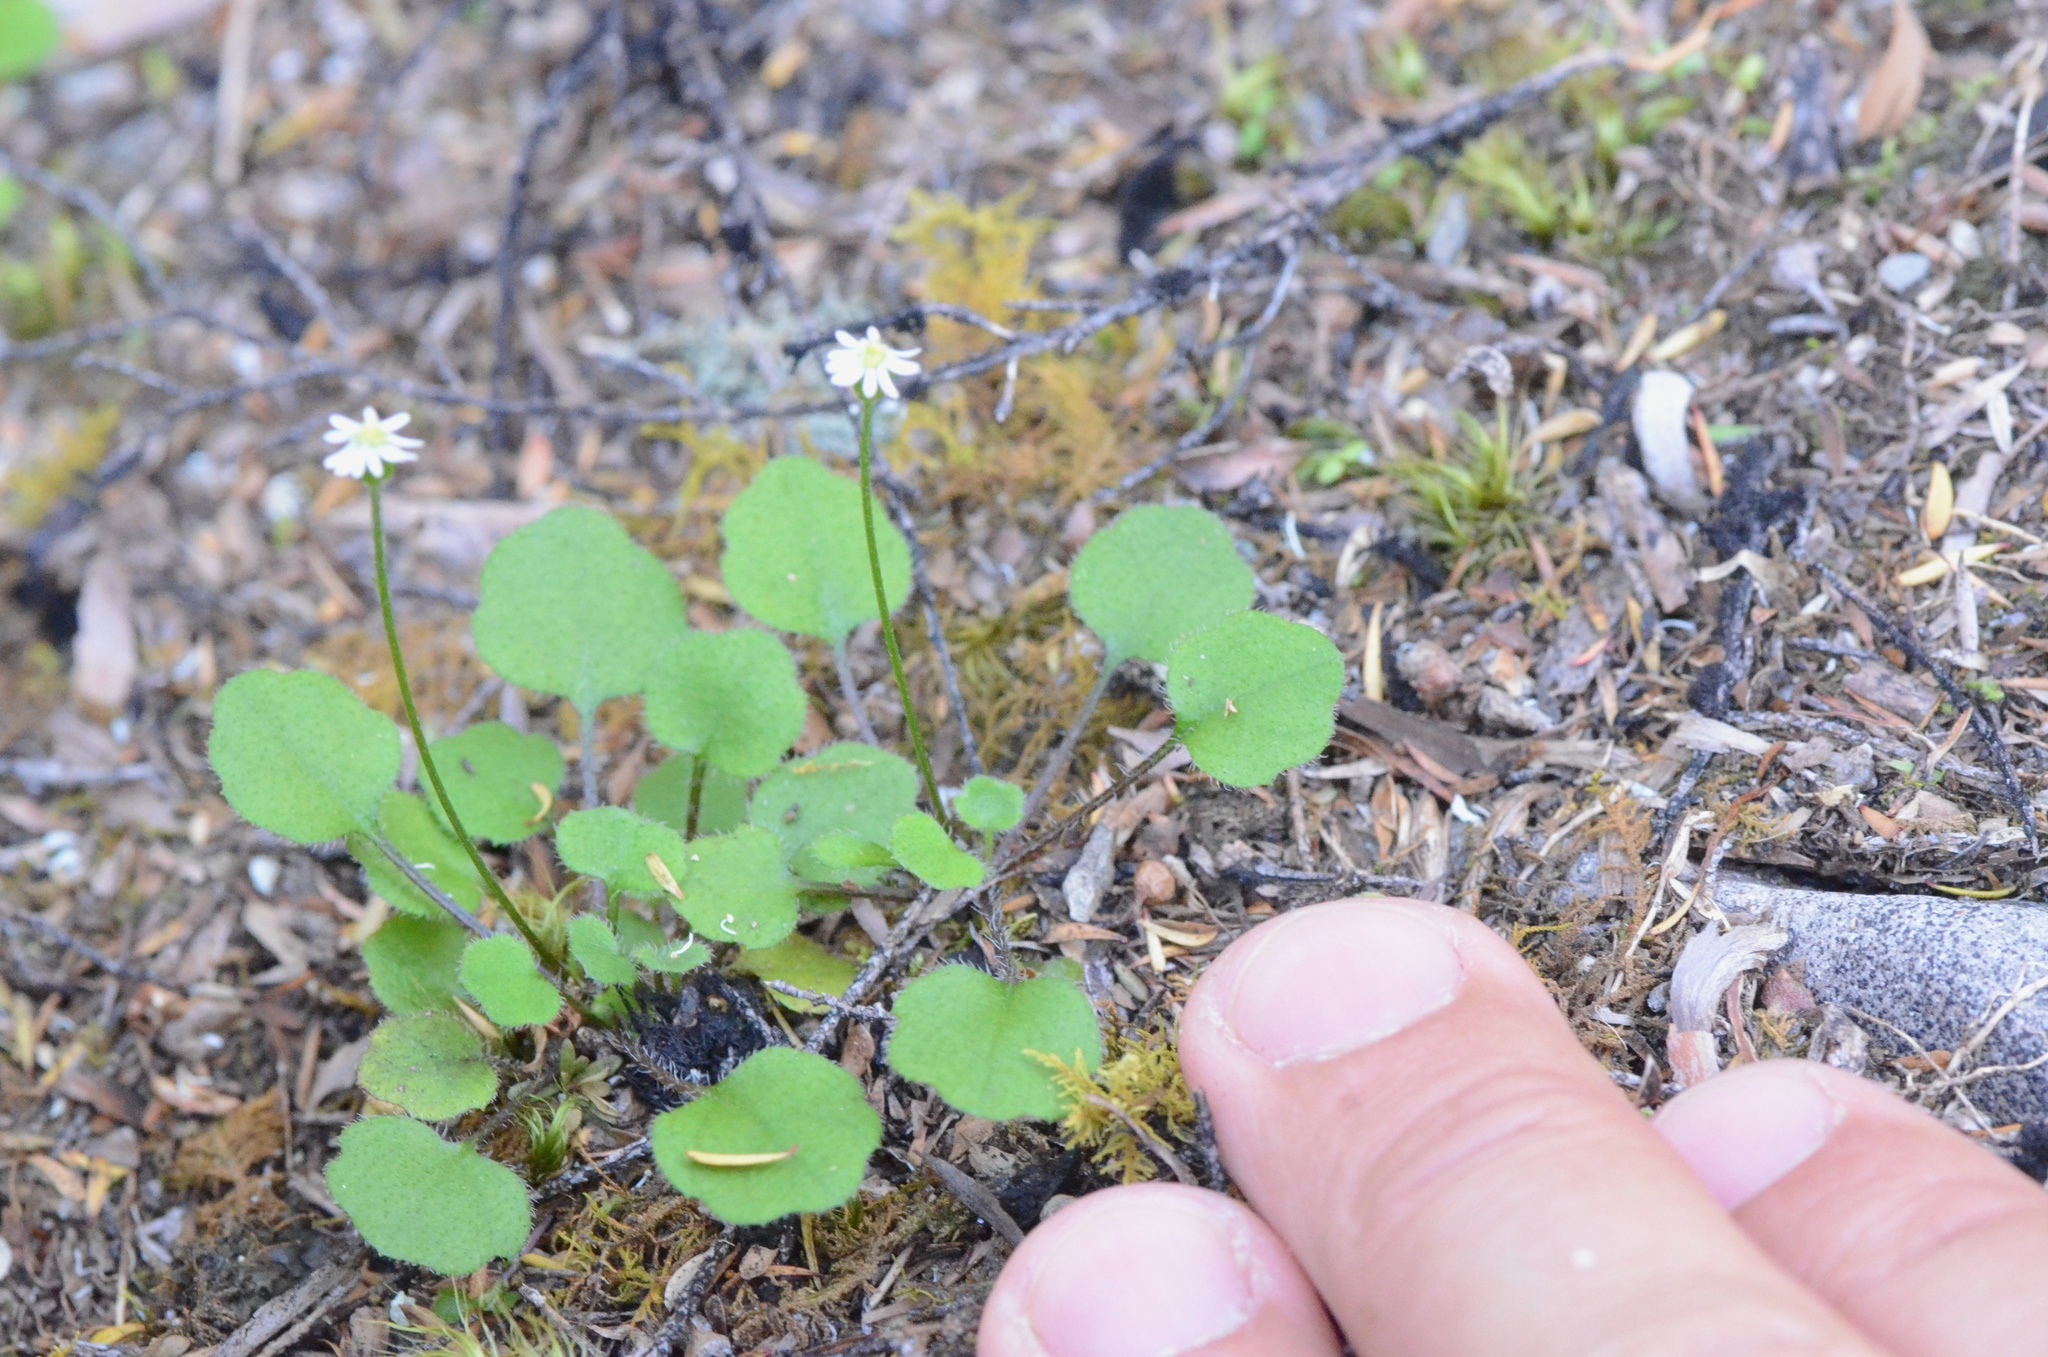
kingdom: Plantae
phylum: Tracheophyta
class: Magnoliopsida
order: Asterales
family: Asteraceae
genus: Lagenophora
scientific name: Lagenophora strangulata
